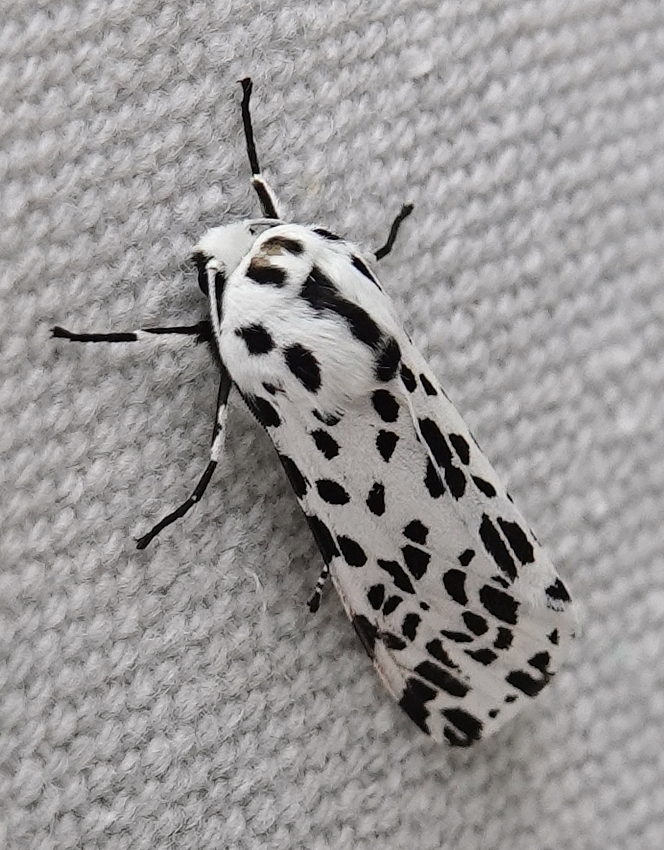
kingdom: Animalia
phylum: Arthropoda
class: Insecta
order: Lepidoptera
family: Erebidae
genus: Hypercompe
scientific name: Hypercompe permaculata
